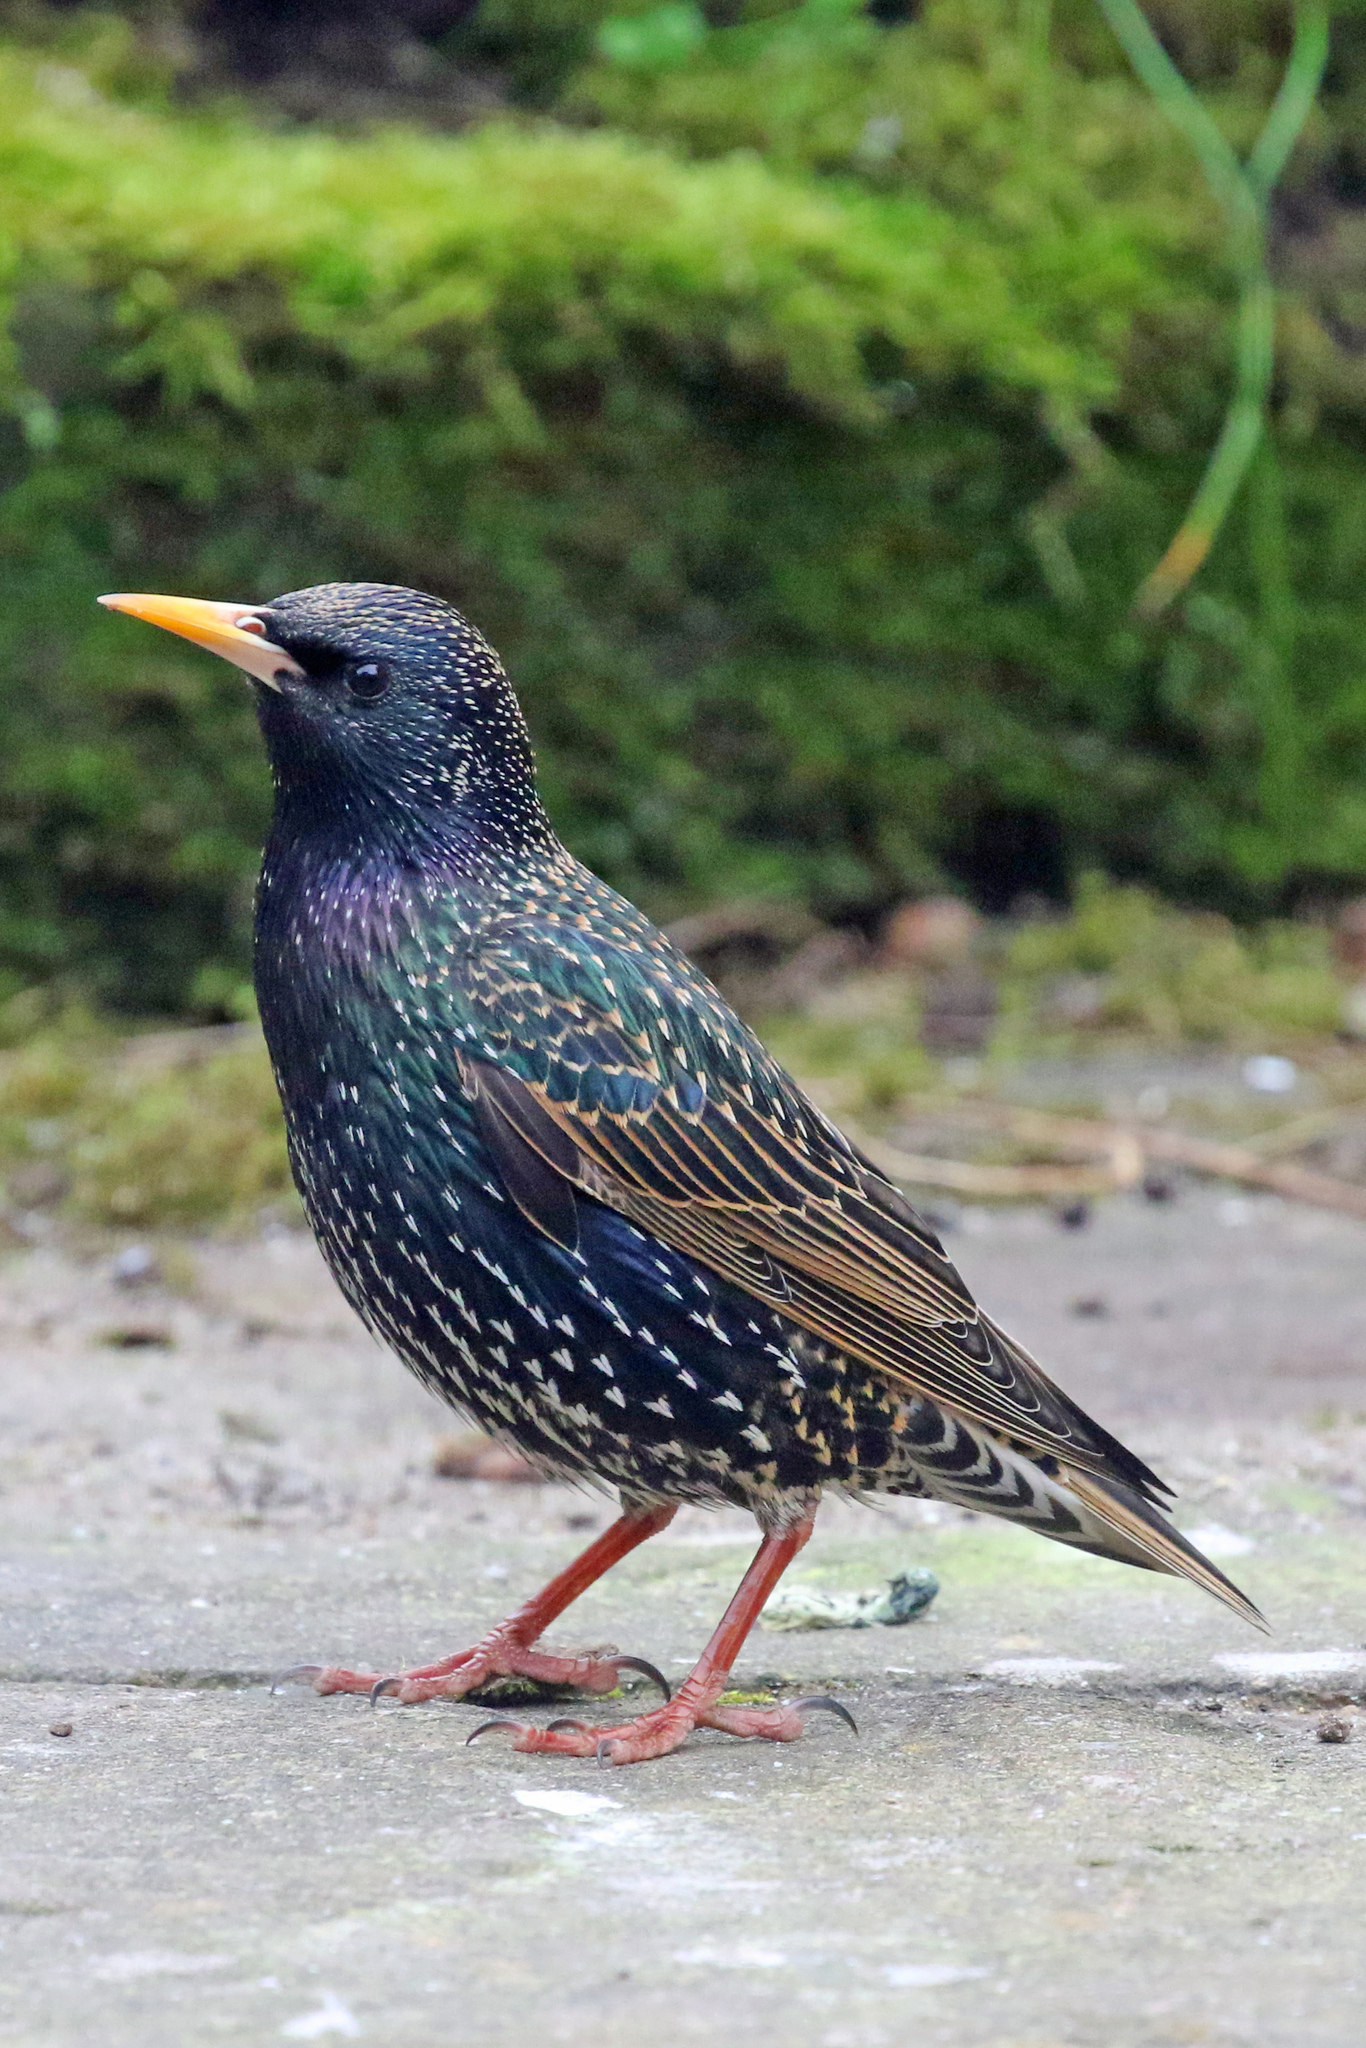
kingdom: Animalia
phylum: Chordata
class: Aves
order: Passeriformes
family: Sturnidae
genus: Sturnus
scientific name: Sturnus vulgaris
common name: Common starling
